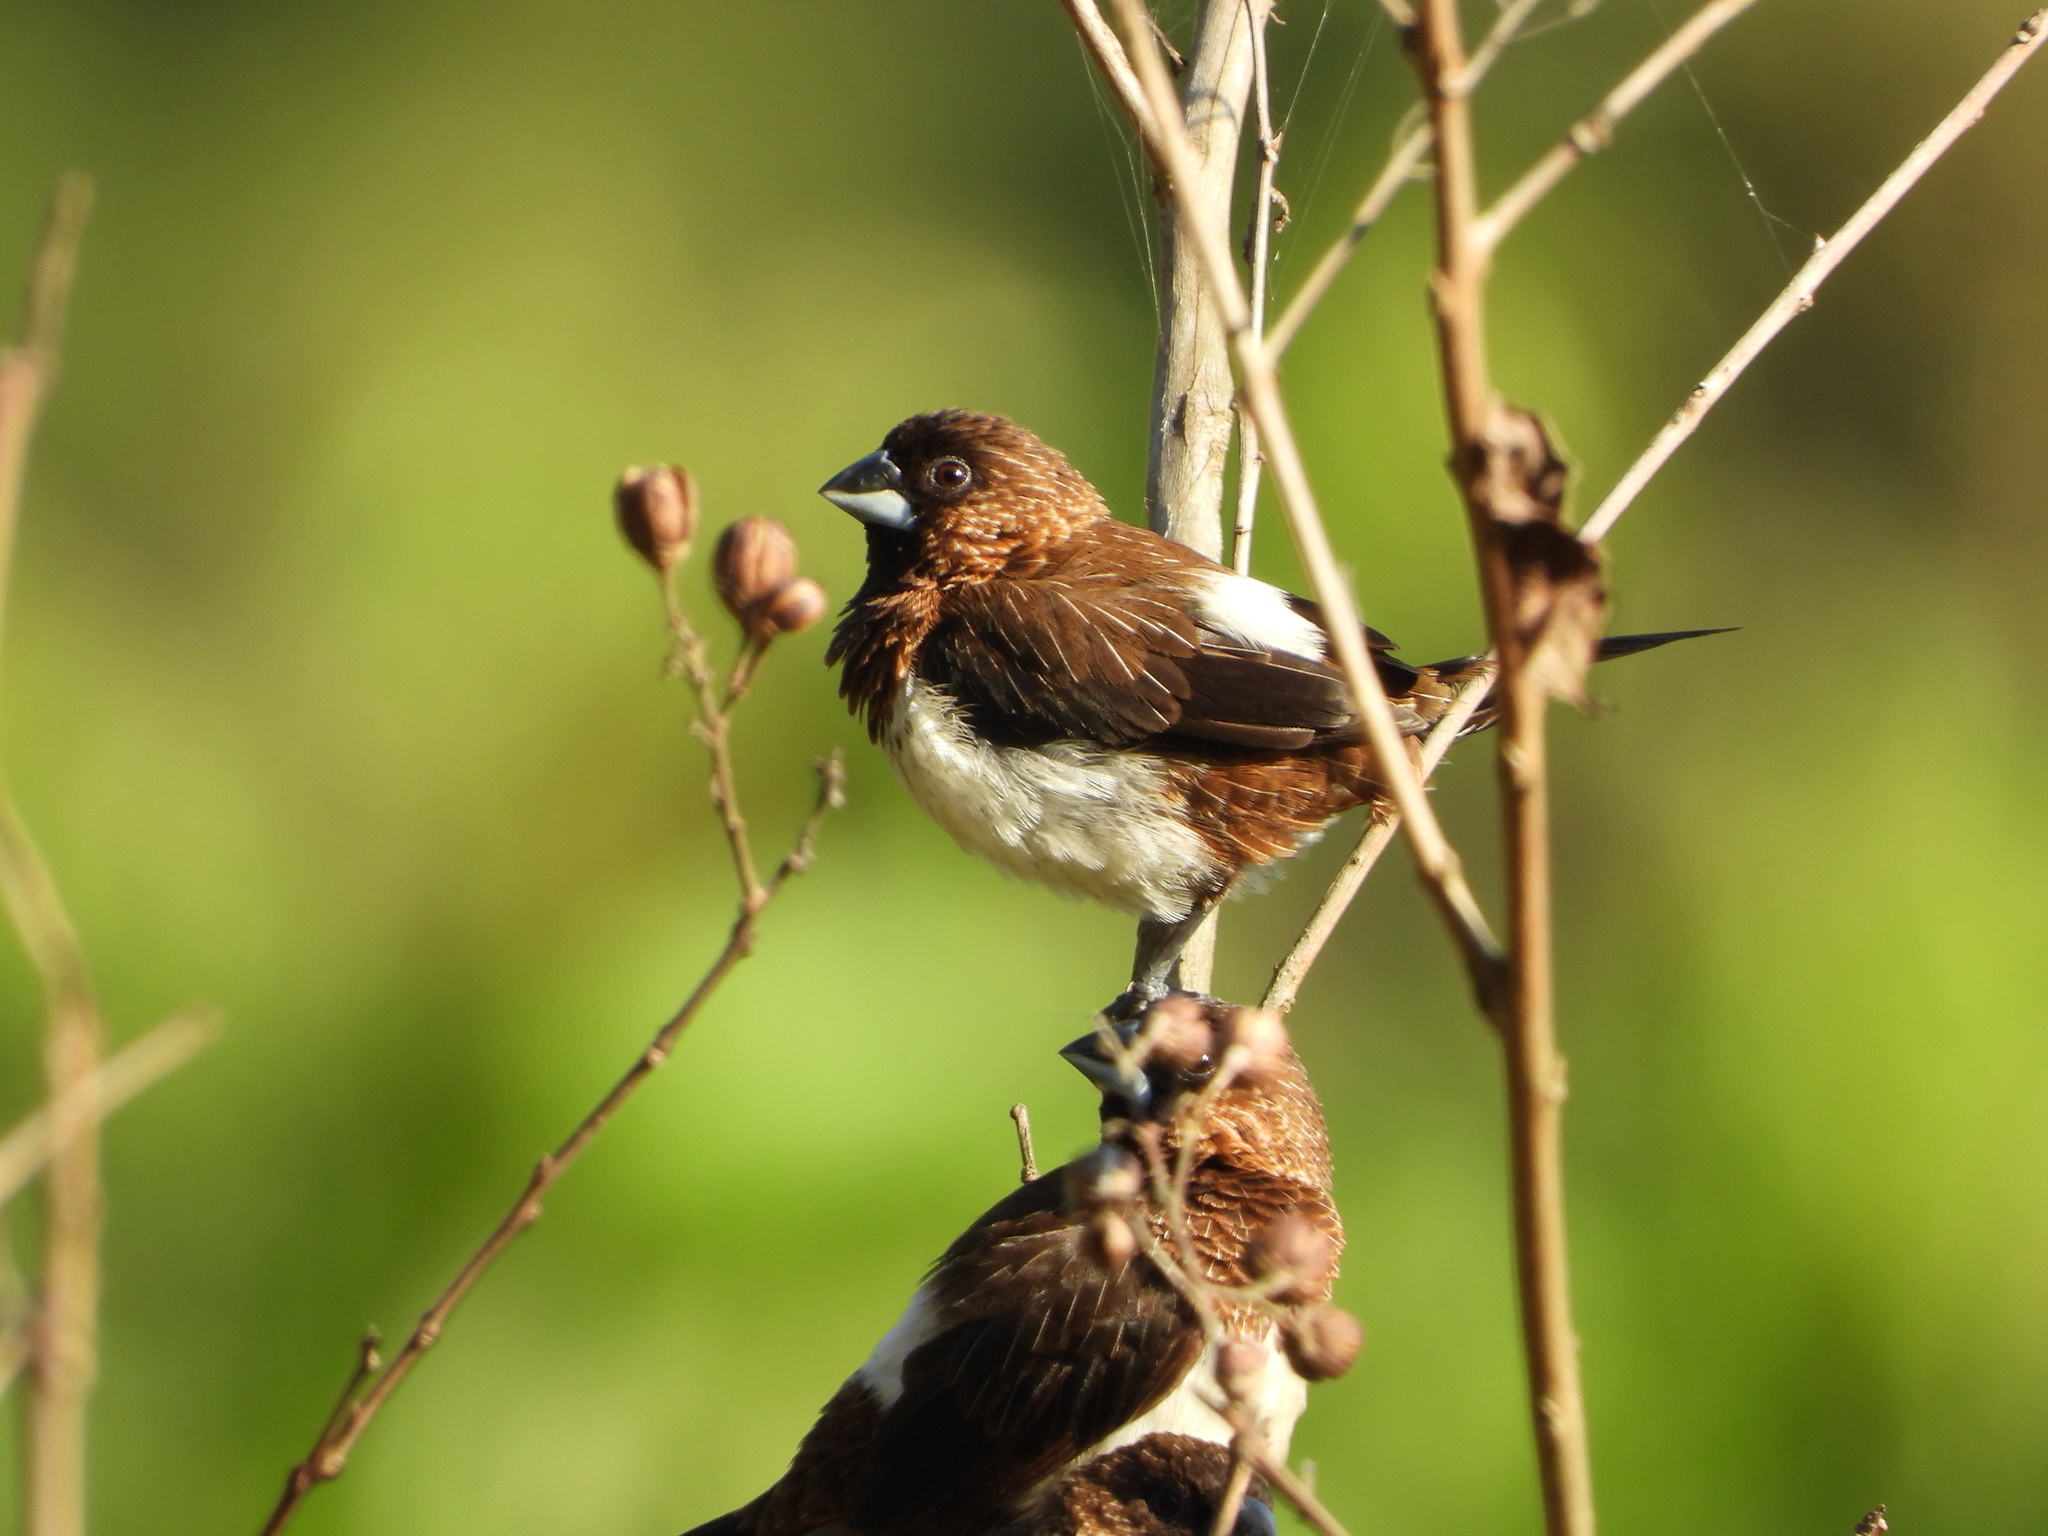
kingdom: Animalia
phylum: Chordata
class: Aves
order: Passeriformes
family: Estrildidae
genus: Lonchura
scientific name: Lonchura striata
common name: White-rumped munia
